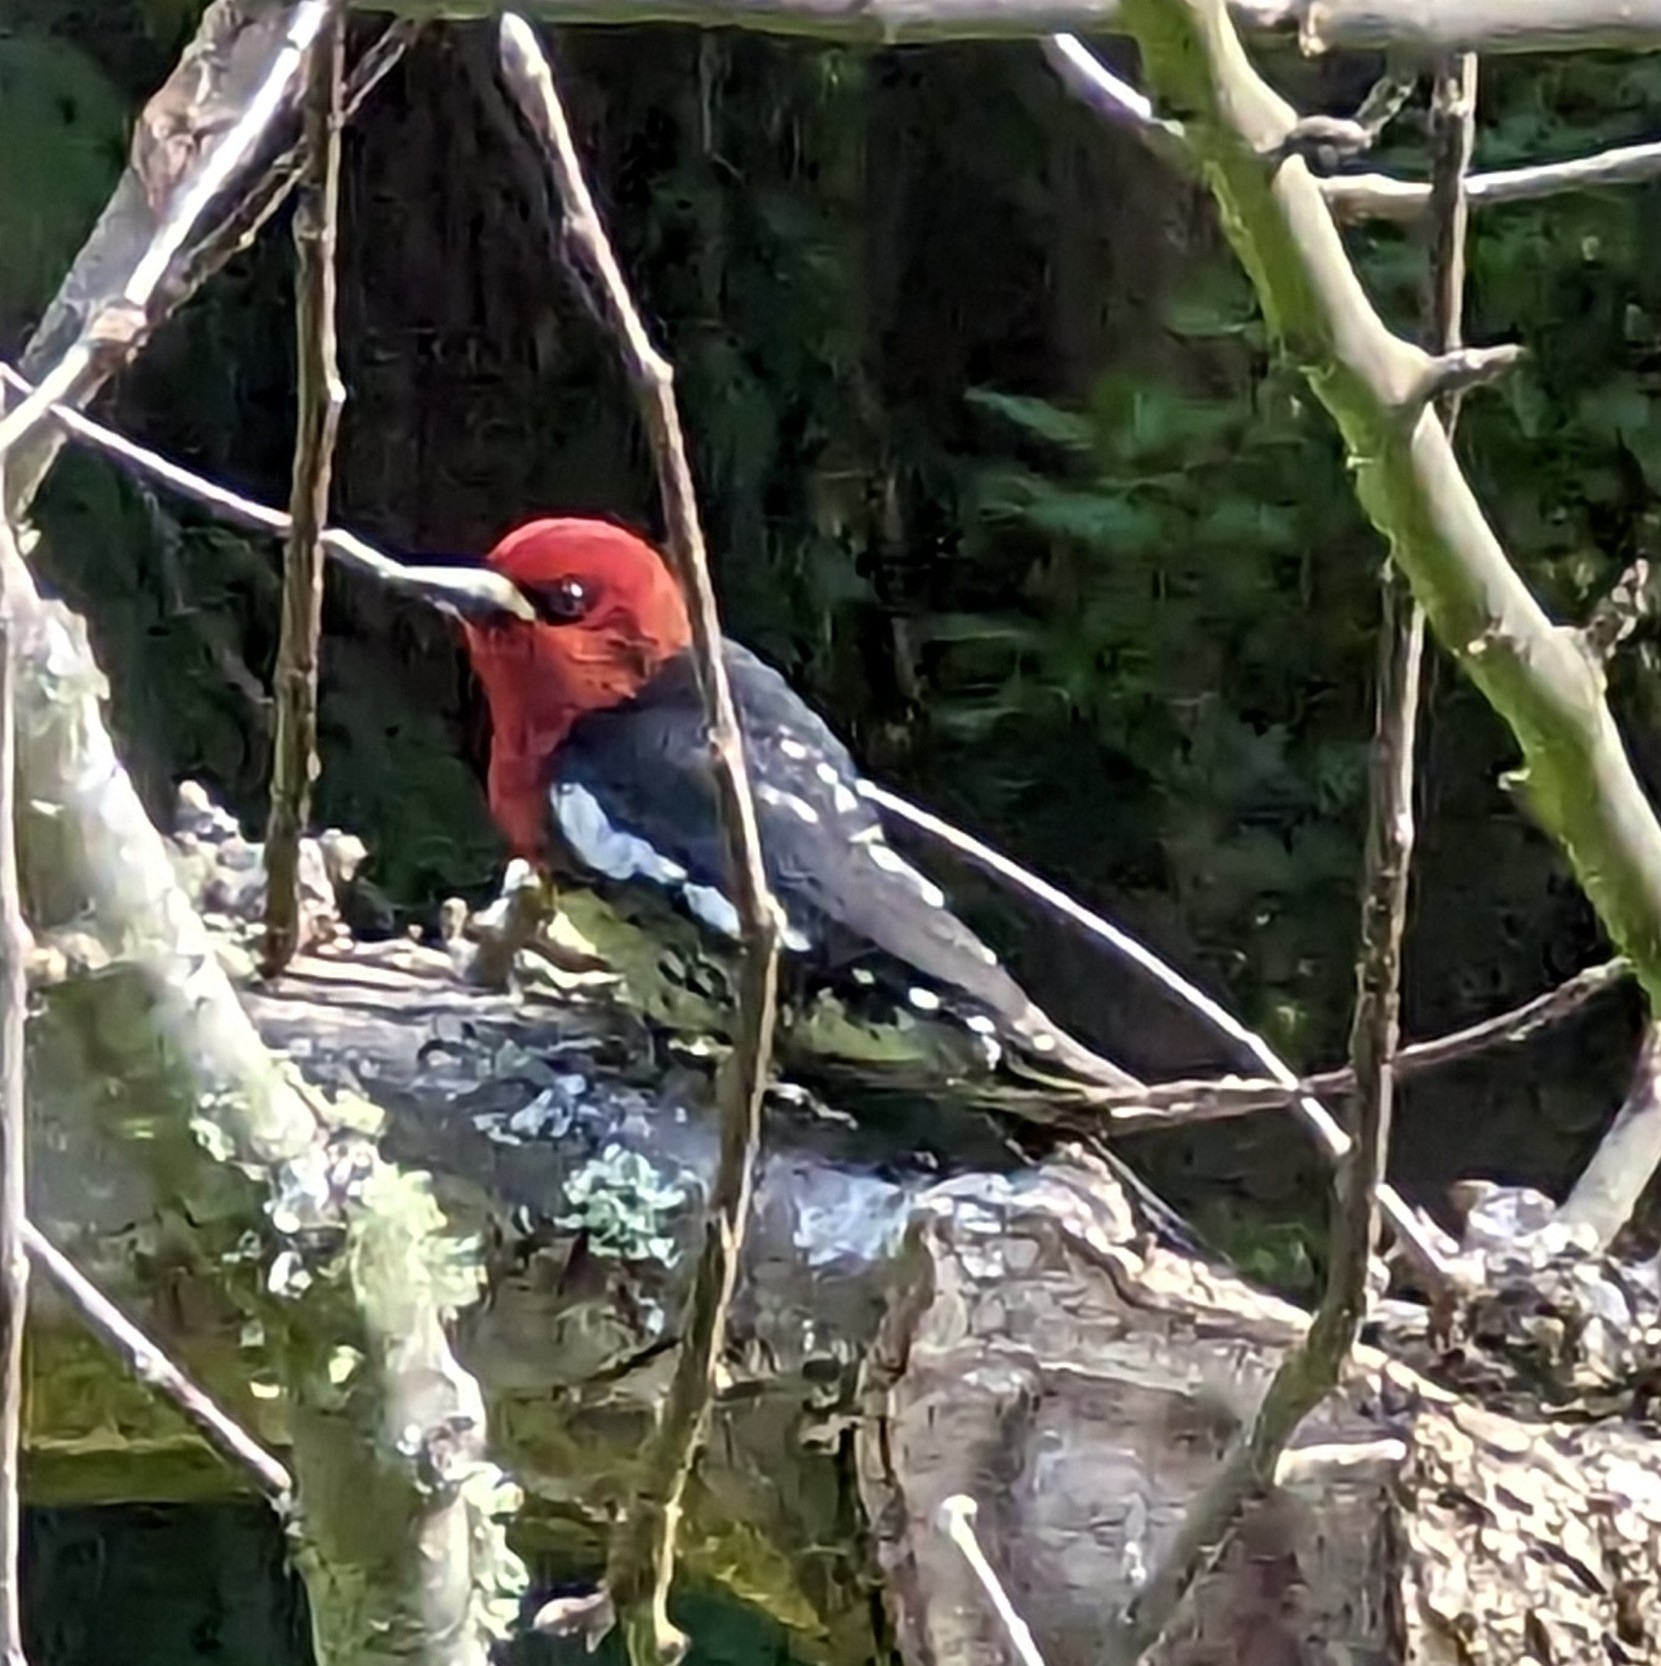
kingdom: Animalia
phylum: Chordata
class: Aves
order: Piciformes
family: Picidae
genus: Sphyrapicus
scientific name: Sphyrapicus ruber
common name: Red-breasted sapsucker
